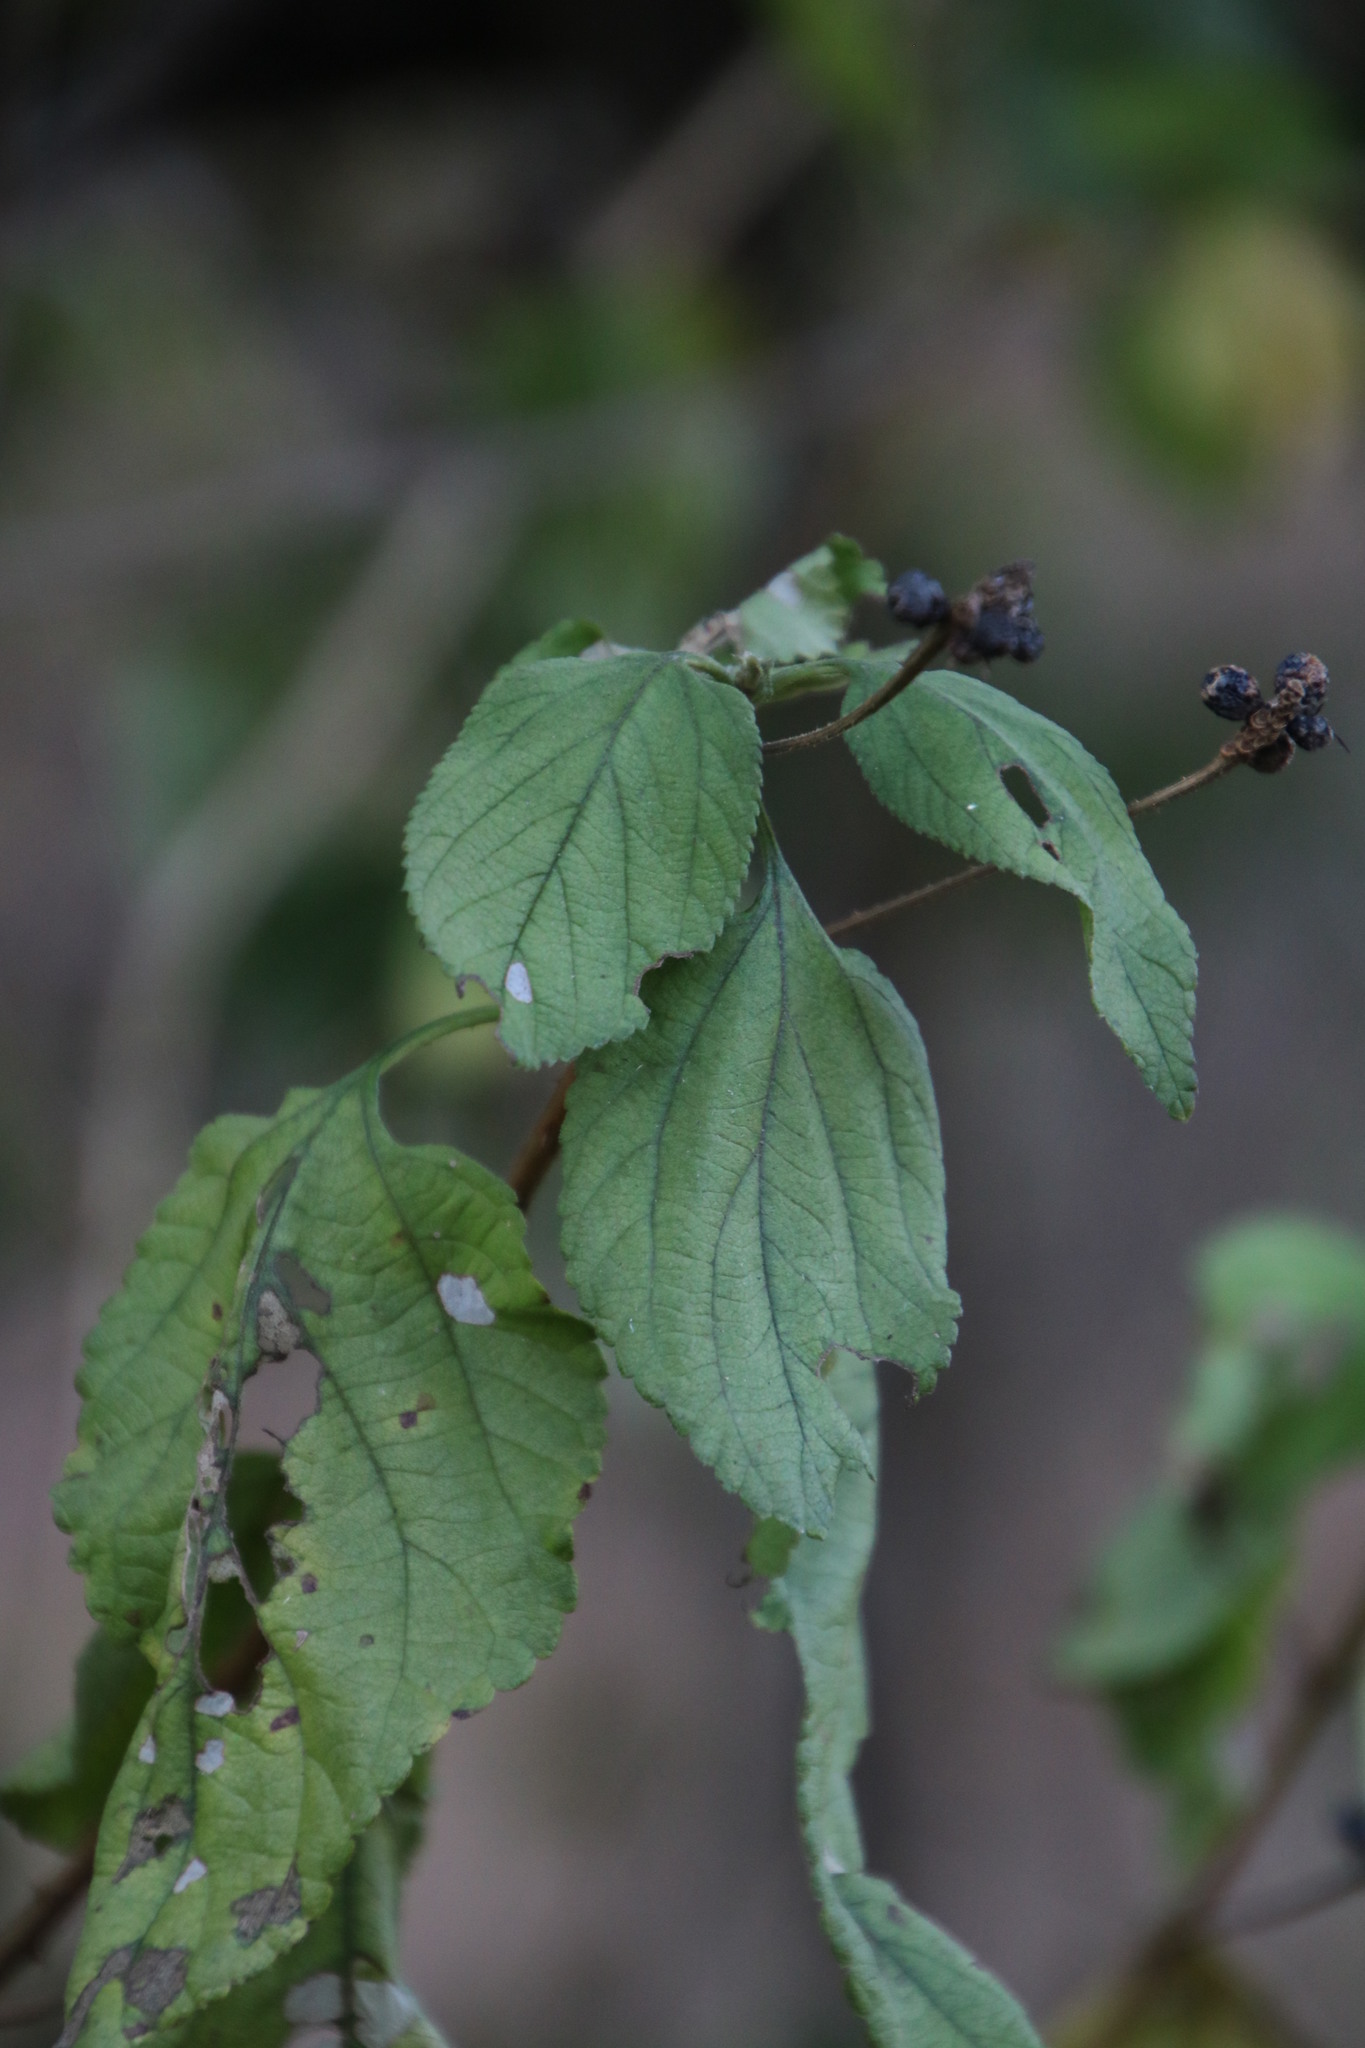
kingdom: Plantae
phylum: Tracheophyta
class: Magnoliopsida
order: Lamiales
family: Verbenaceae
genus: Lantana
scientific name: Lantana camara
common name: Lantana
